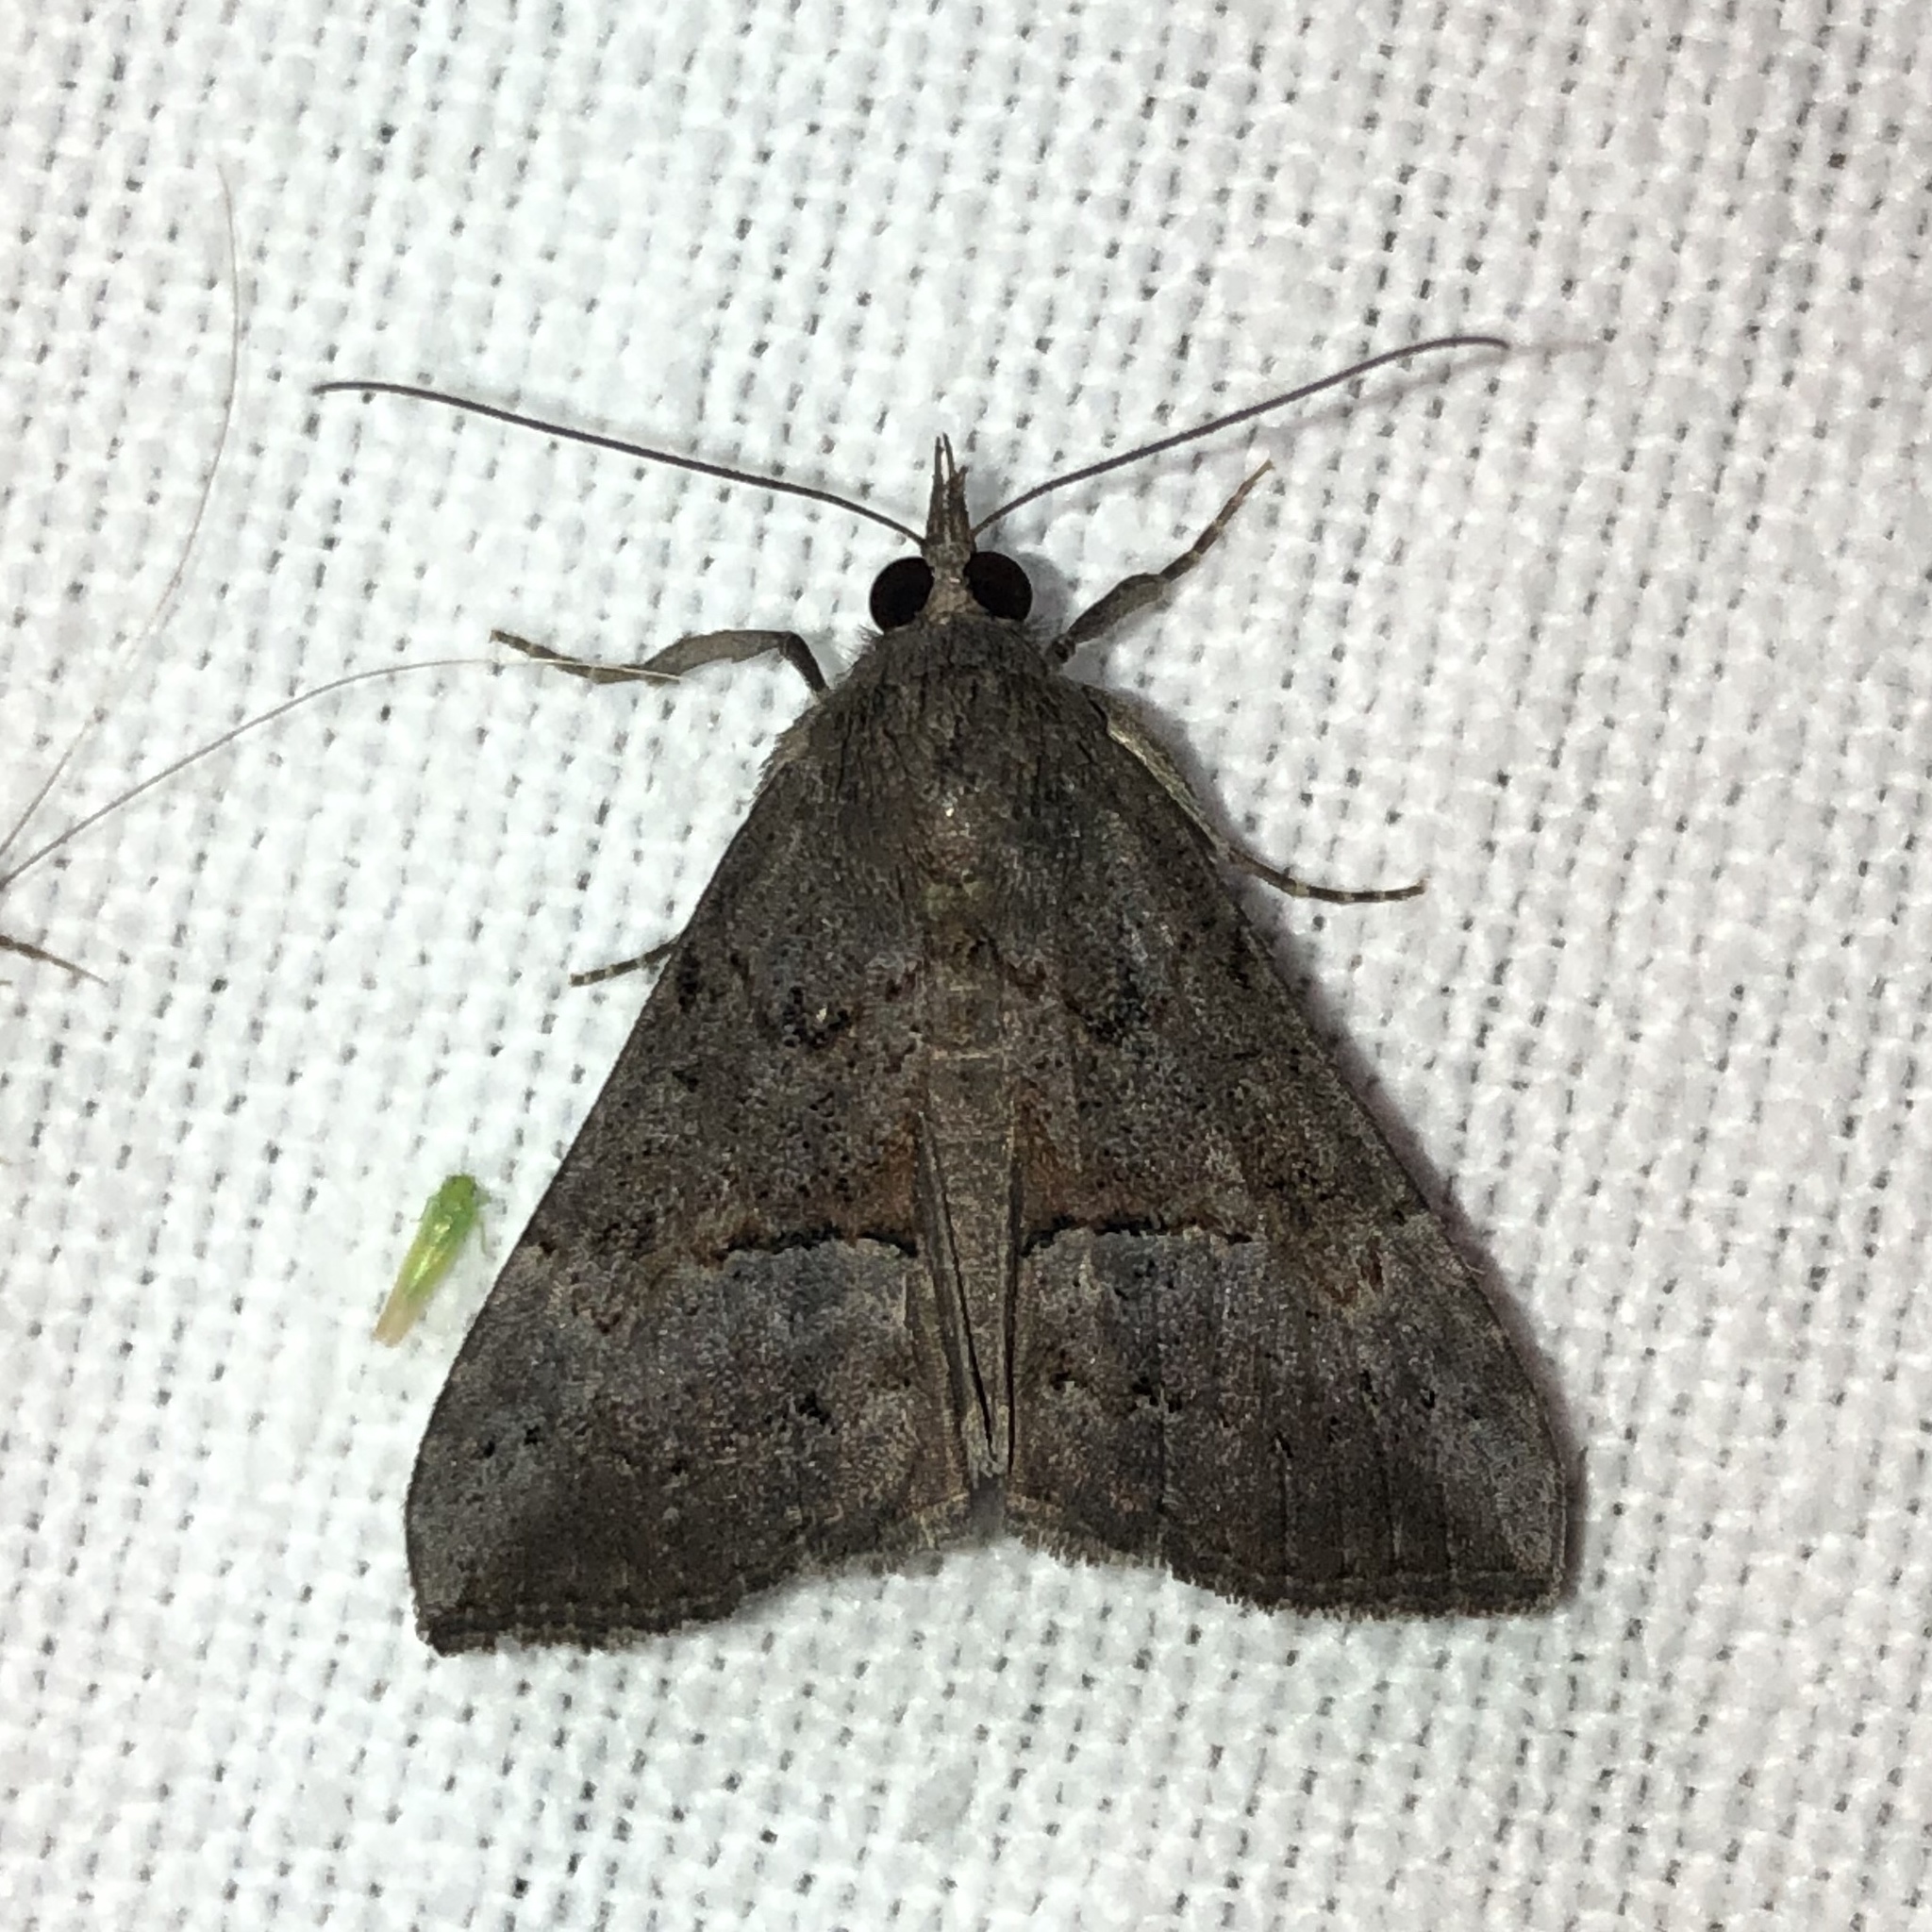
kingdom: Animalia
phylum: Arthropoda
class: Insecta
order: Lepidoptera
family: Erebidae
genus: Hypena
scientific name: Hypena scabra
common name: Green cloverworm
